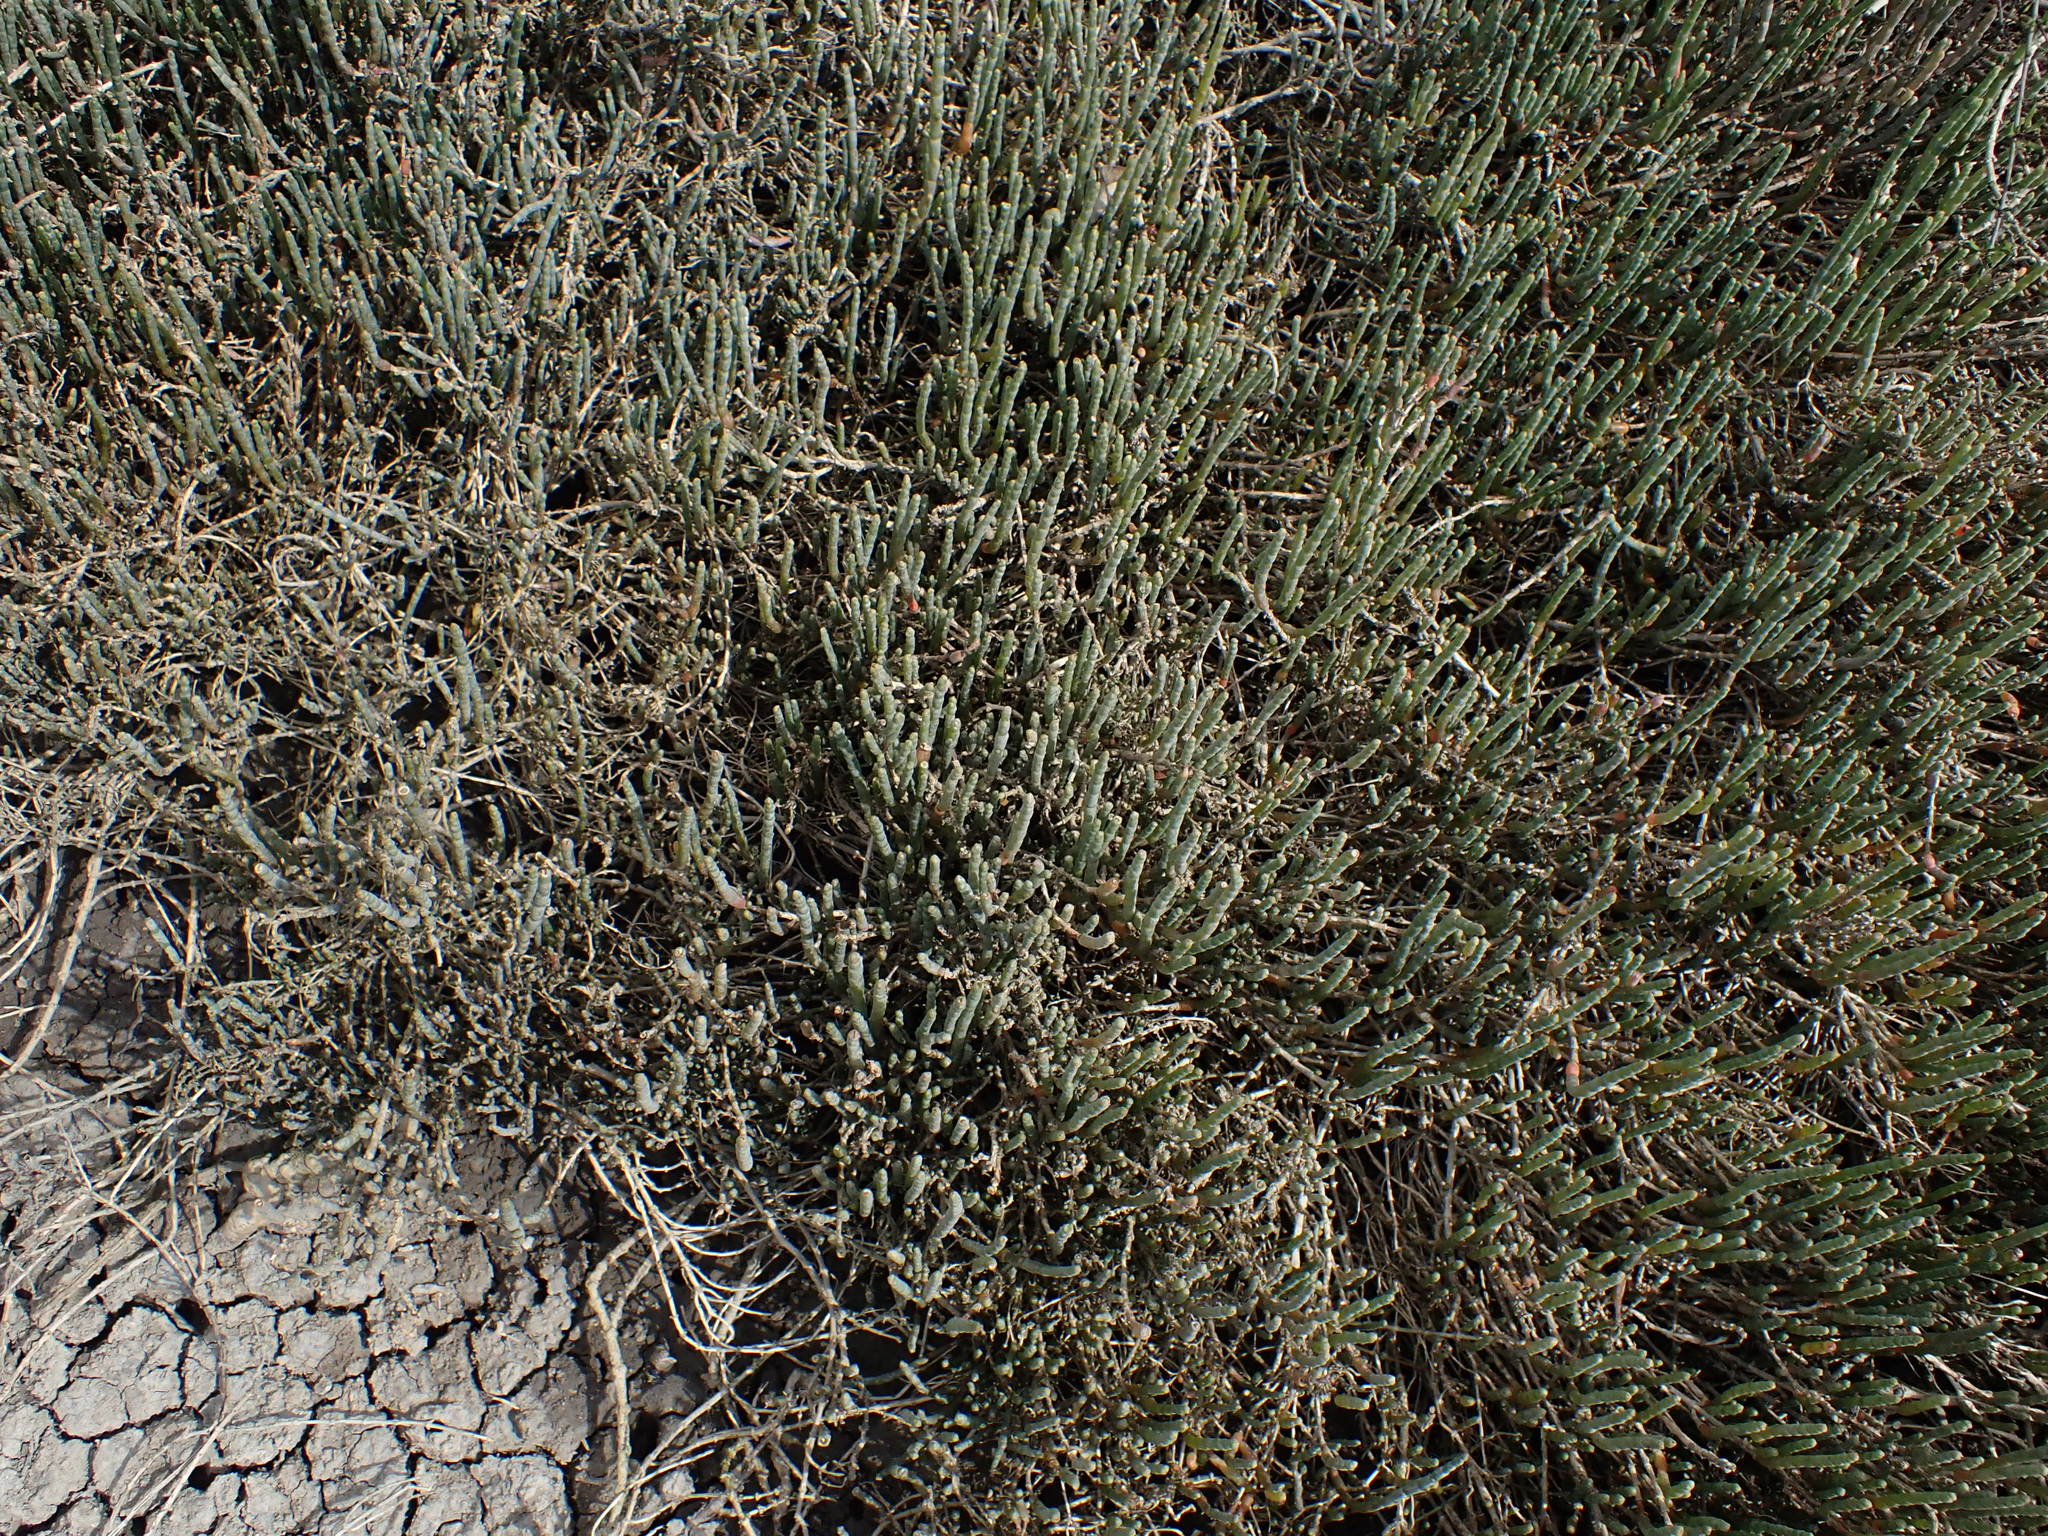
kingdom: Plantae
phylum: Tracheophyta
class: Magnoliopsida
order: Caryophyllales
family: Amaranthaceae
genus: Salicornia
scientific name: Salicornia quinqueflora
